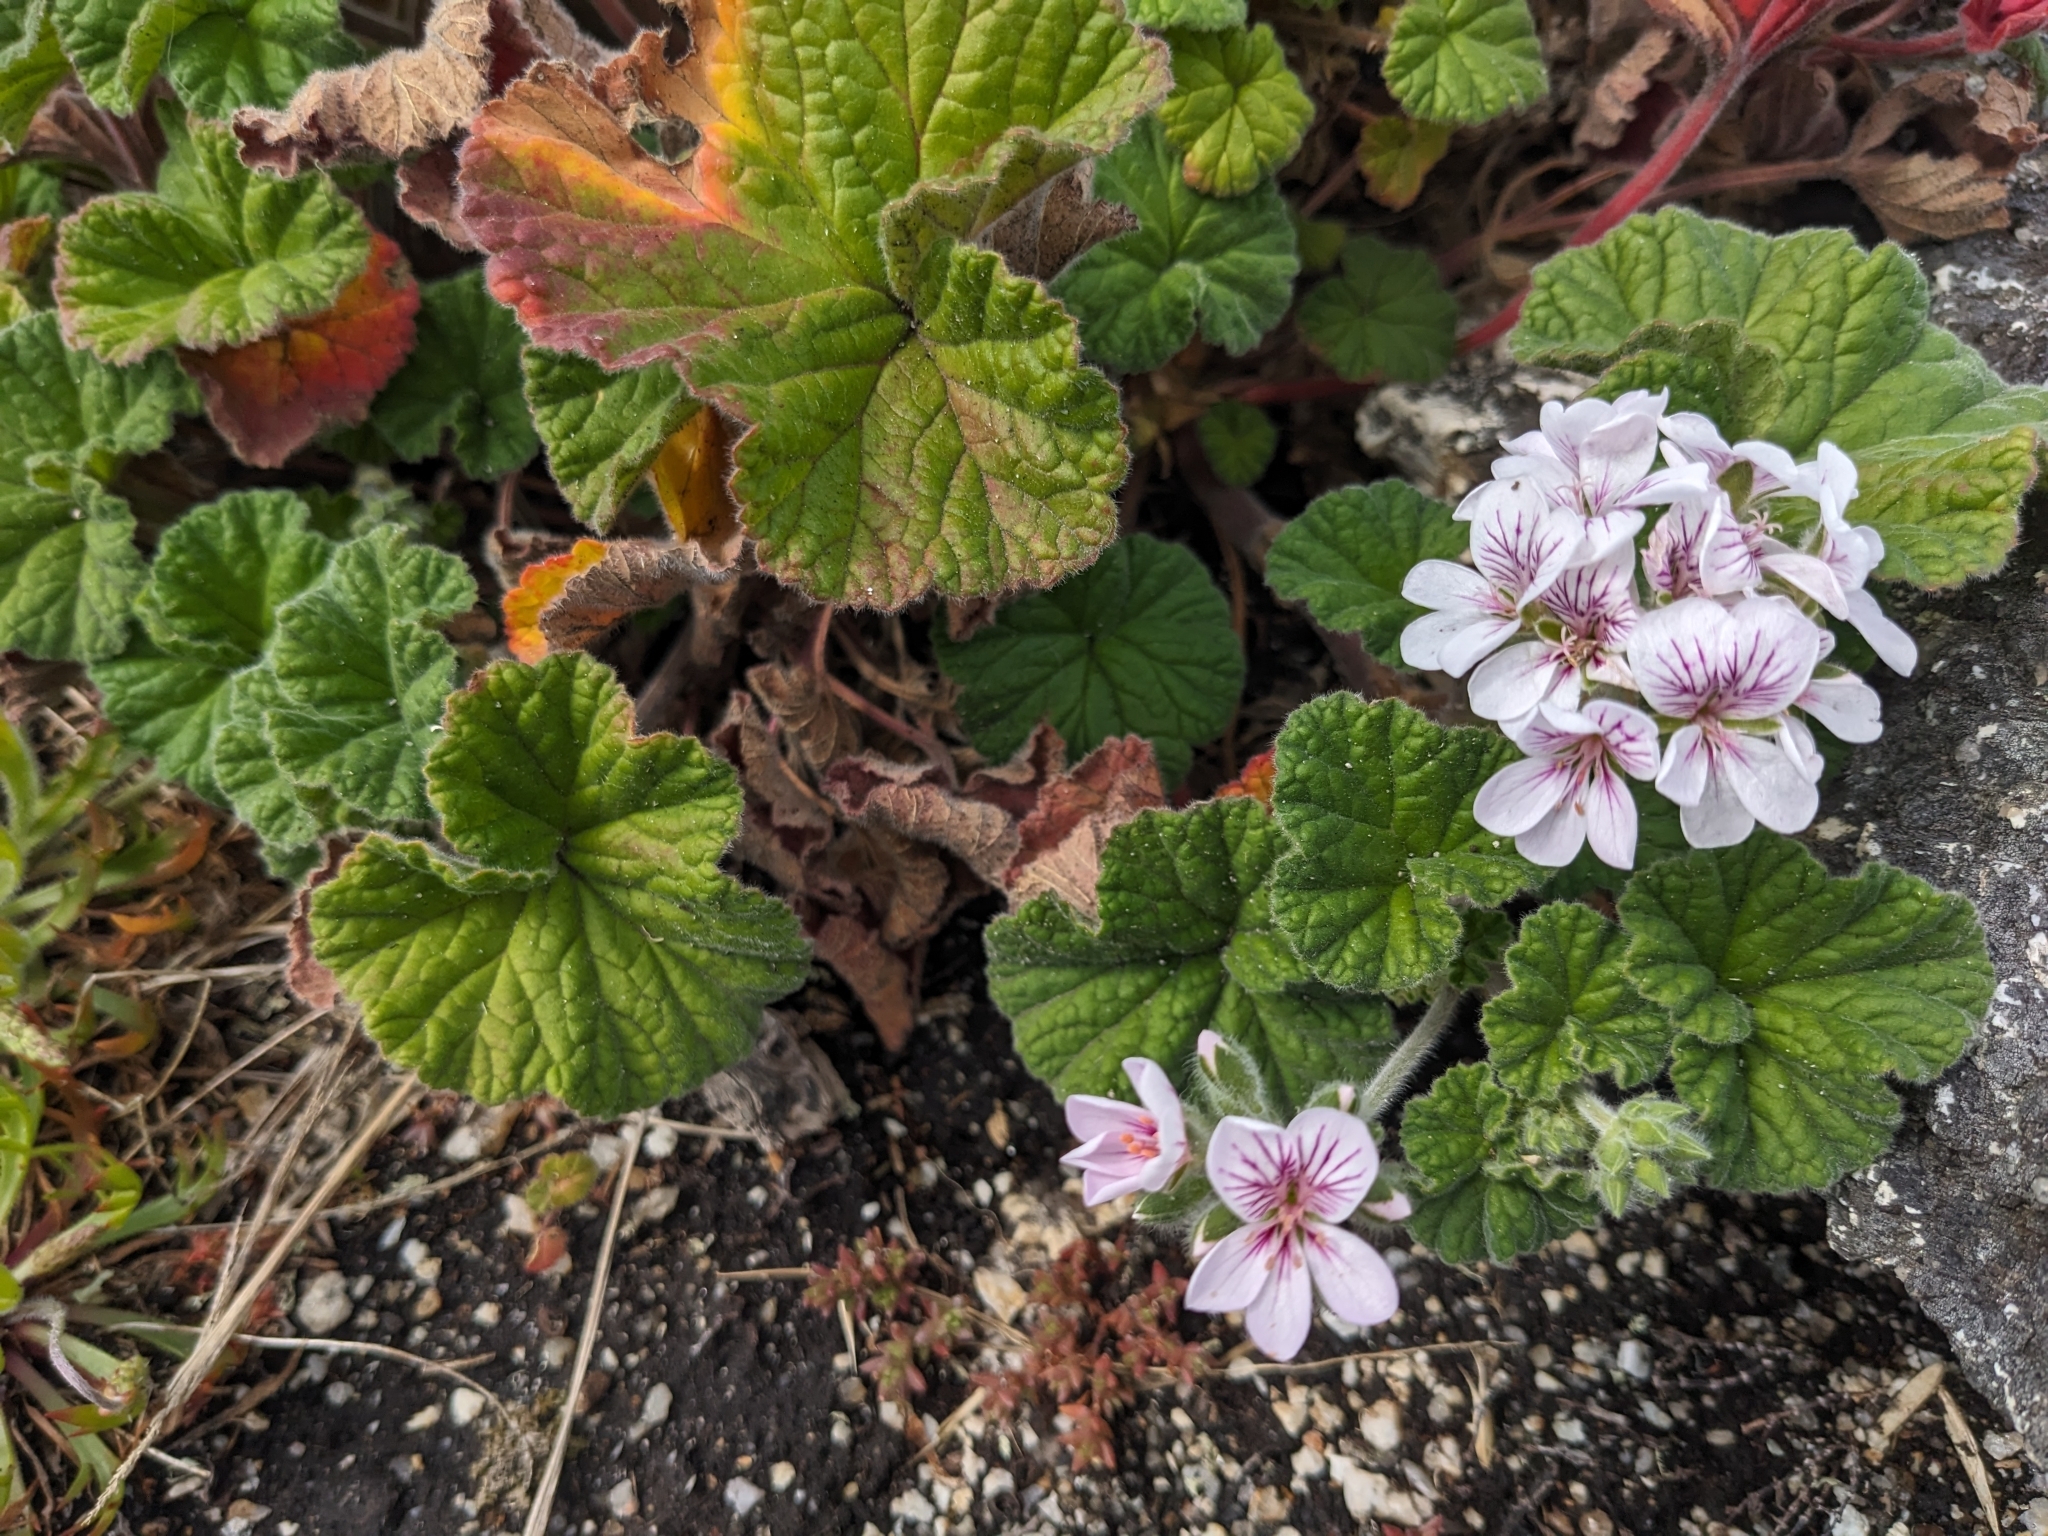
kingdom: Plantae
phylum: Tracheophyta
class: Magnoliopsida
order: Geraniales
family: Geraniaceae
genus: Pelargonium
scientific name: Pelargonium australe
